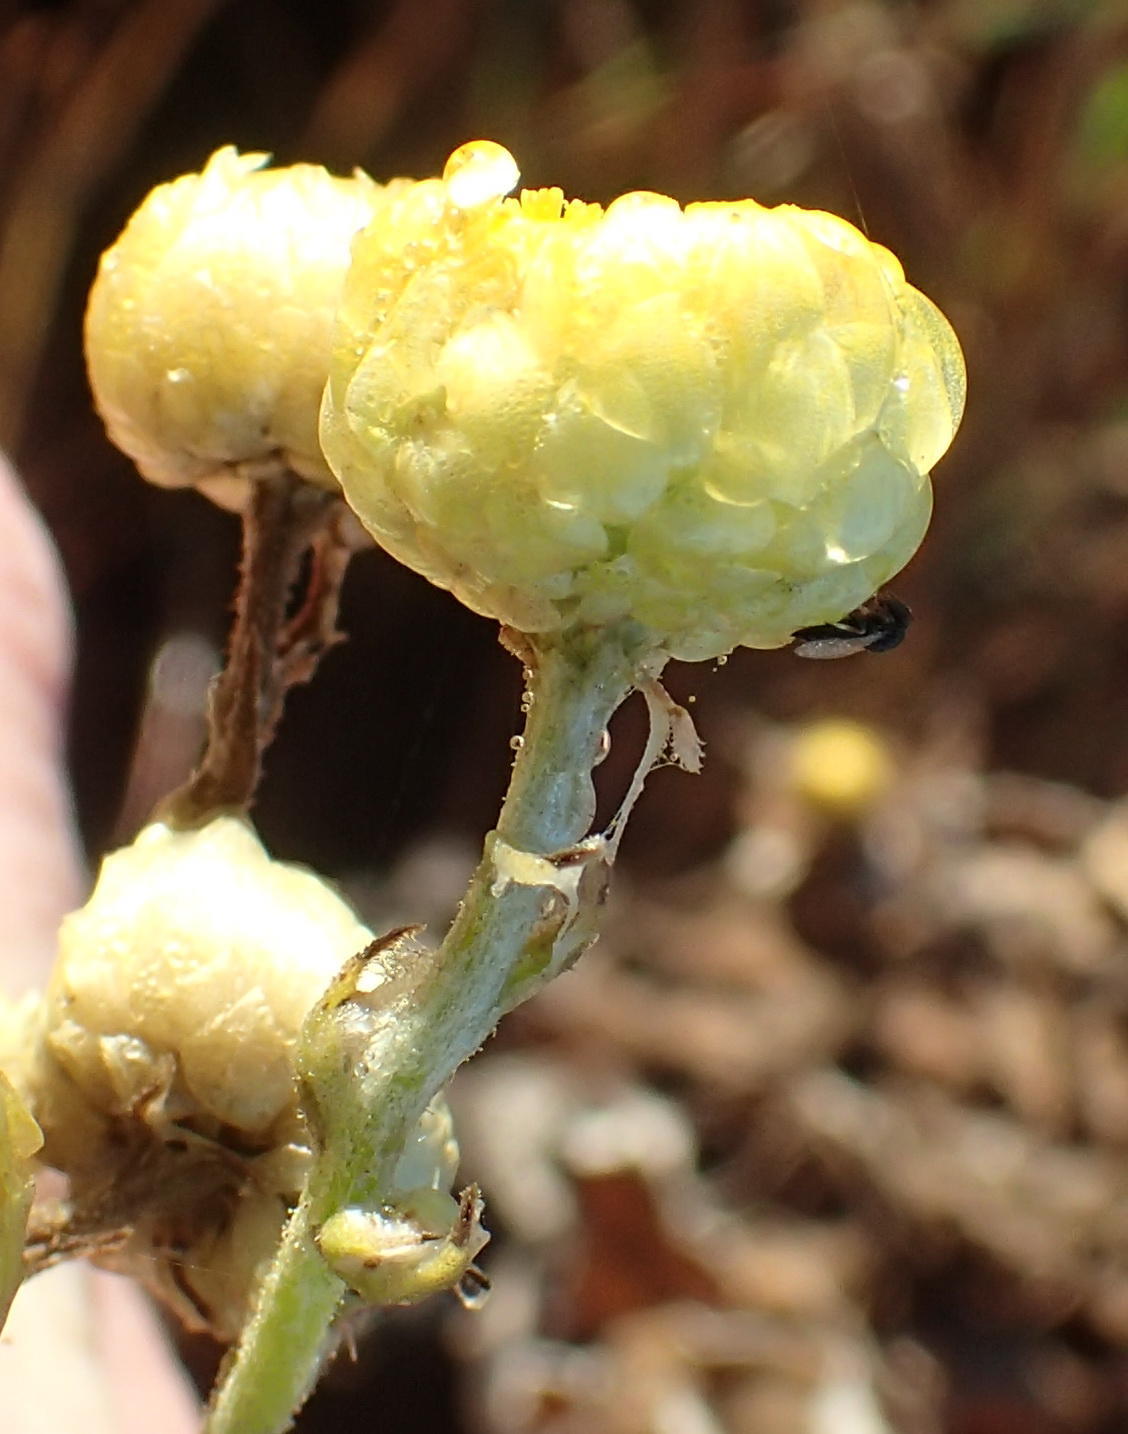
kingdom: Plantae
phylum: Tracheophyta
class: Magnoliopsida
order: Asterales
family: Asteraceae
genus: Helichrysum
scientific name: Helichrysum foetidum
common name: Stinking everlasting
